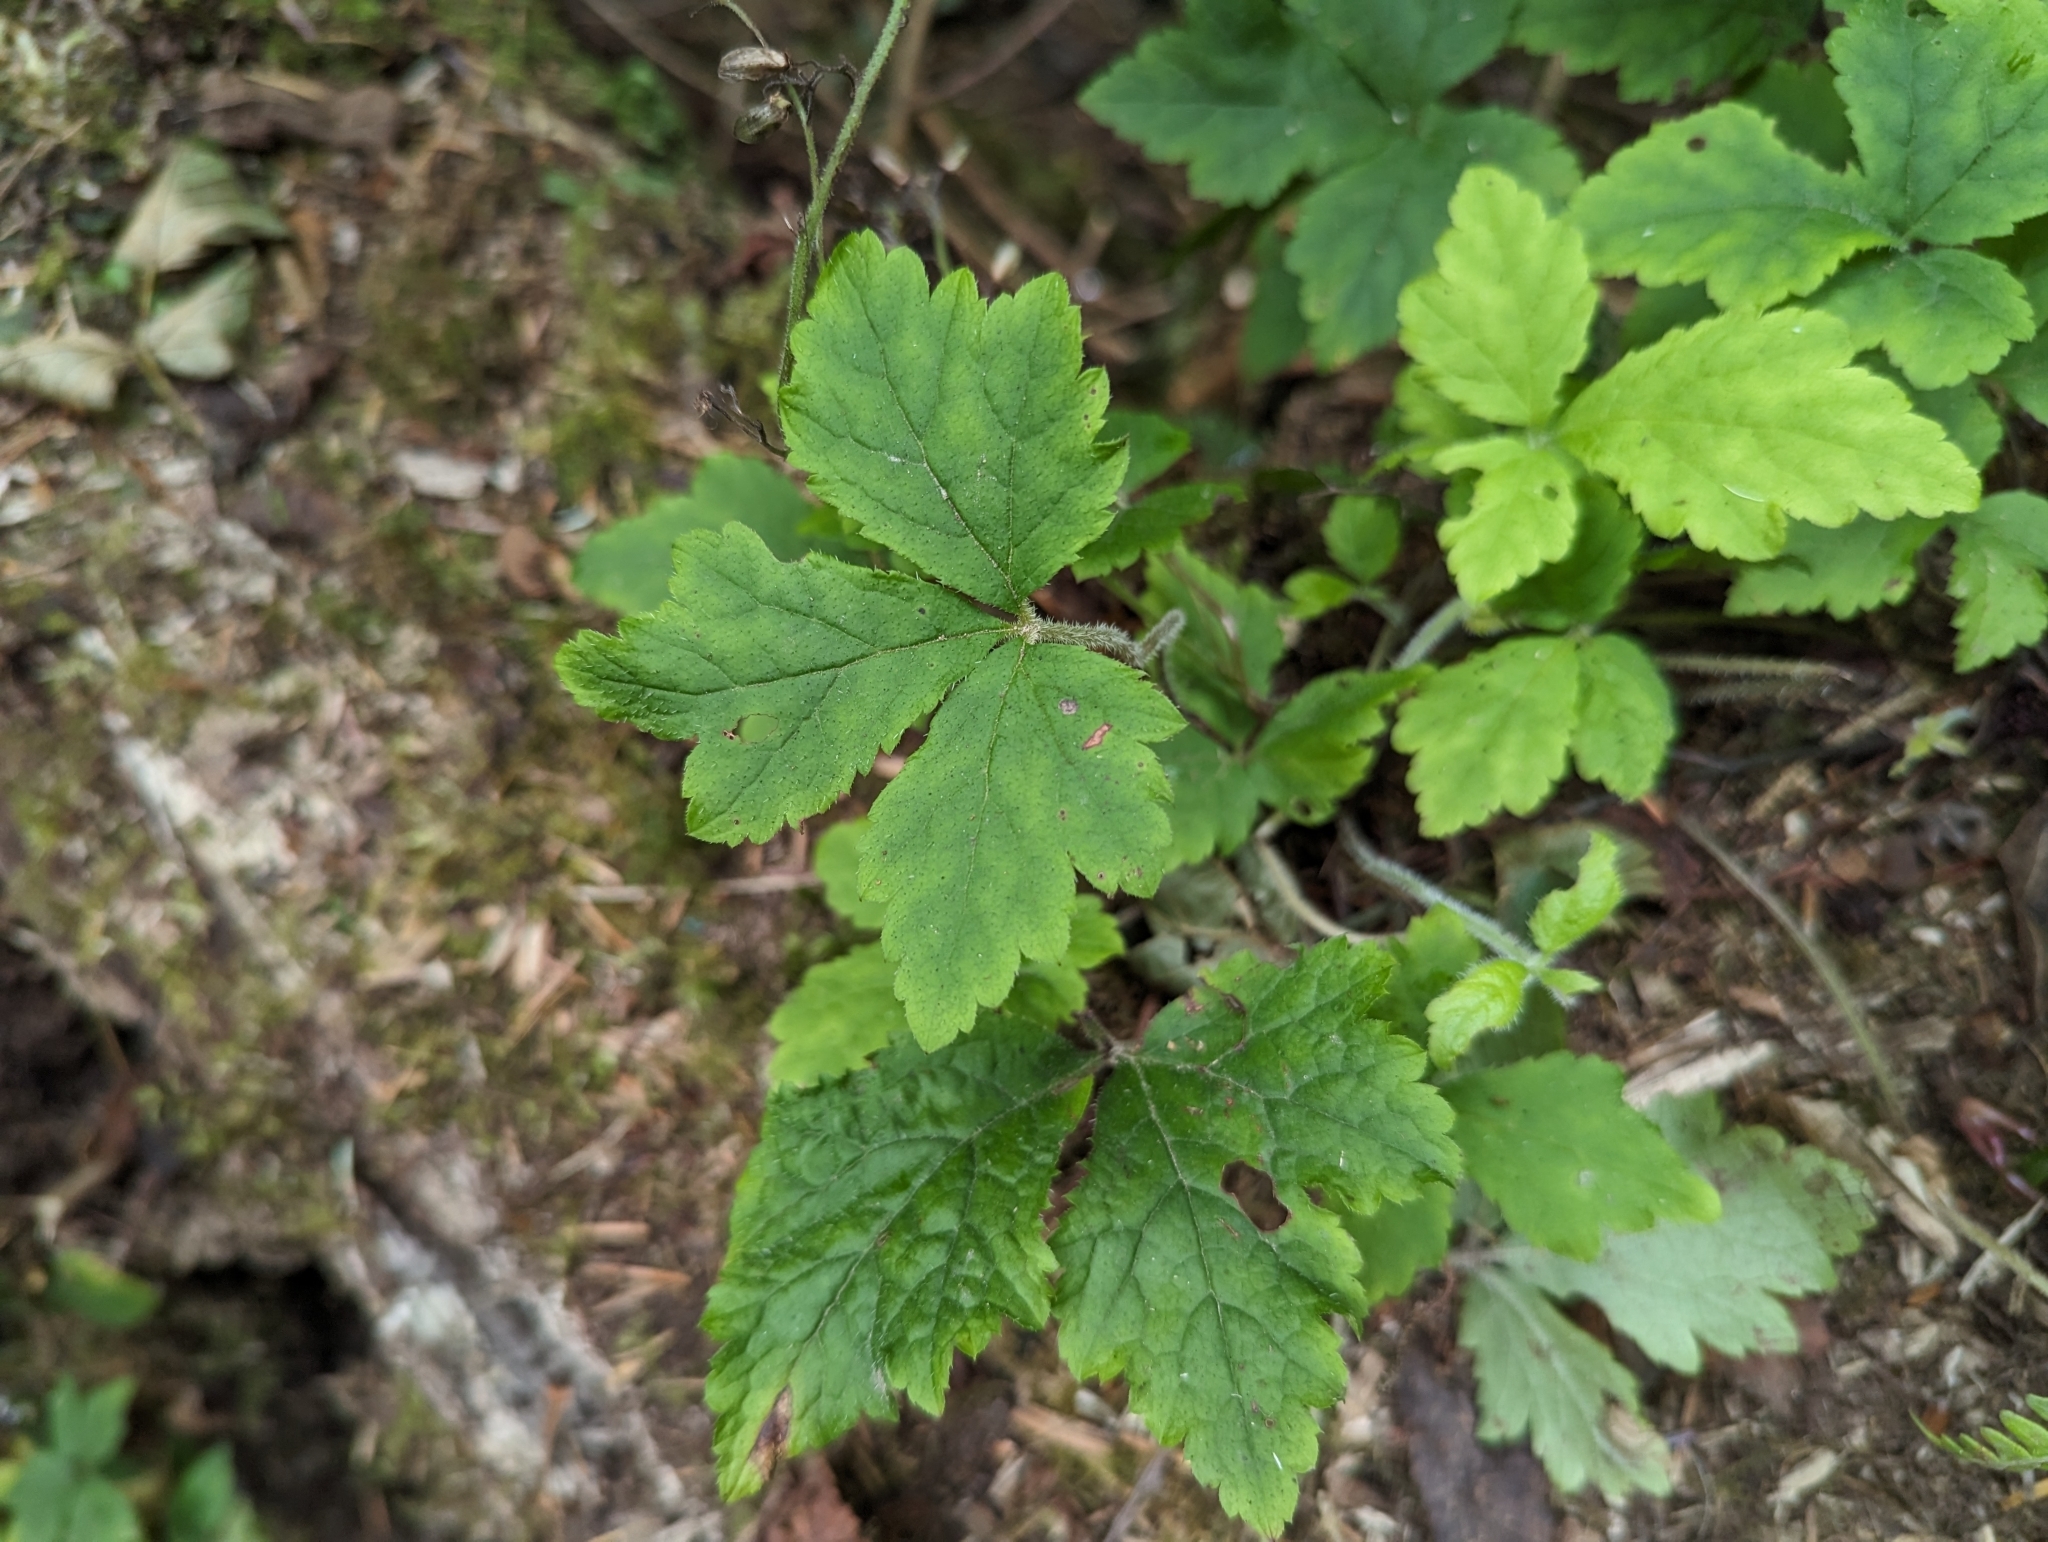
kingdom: Plantae
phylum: Tracheophyta
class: Magnoliopsida
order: Saxifragales
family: Saxifragaceae
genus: Tiarella
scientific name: Tiarella trifoliata
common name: Sugar-scoop
